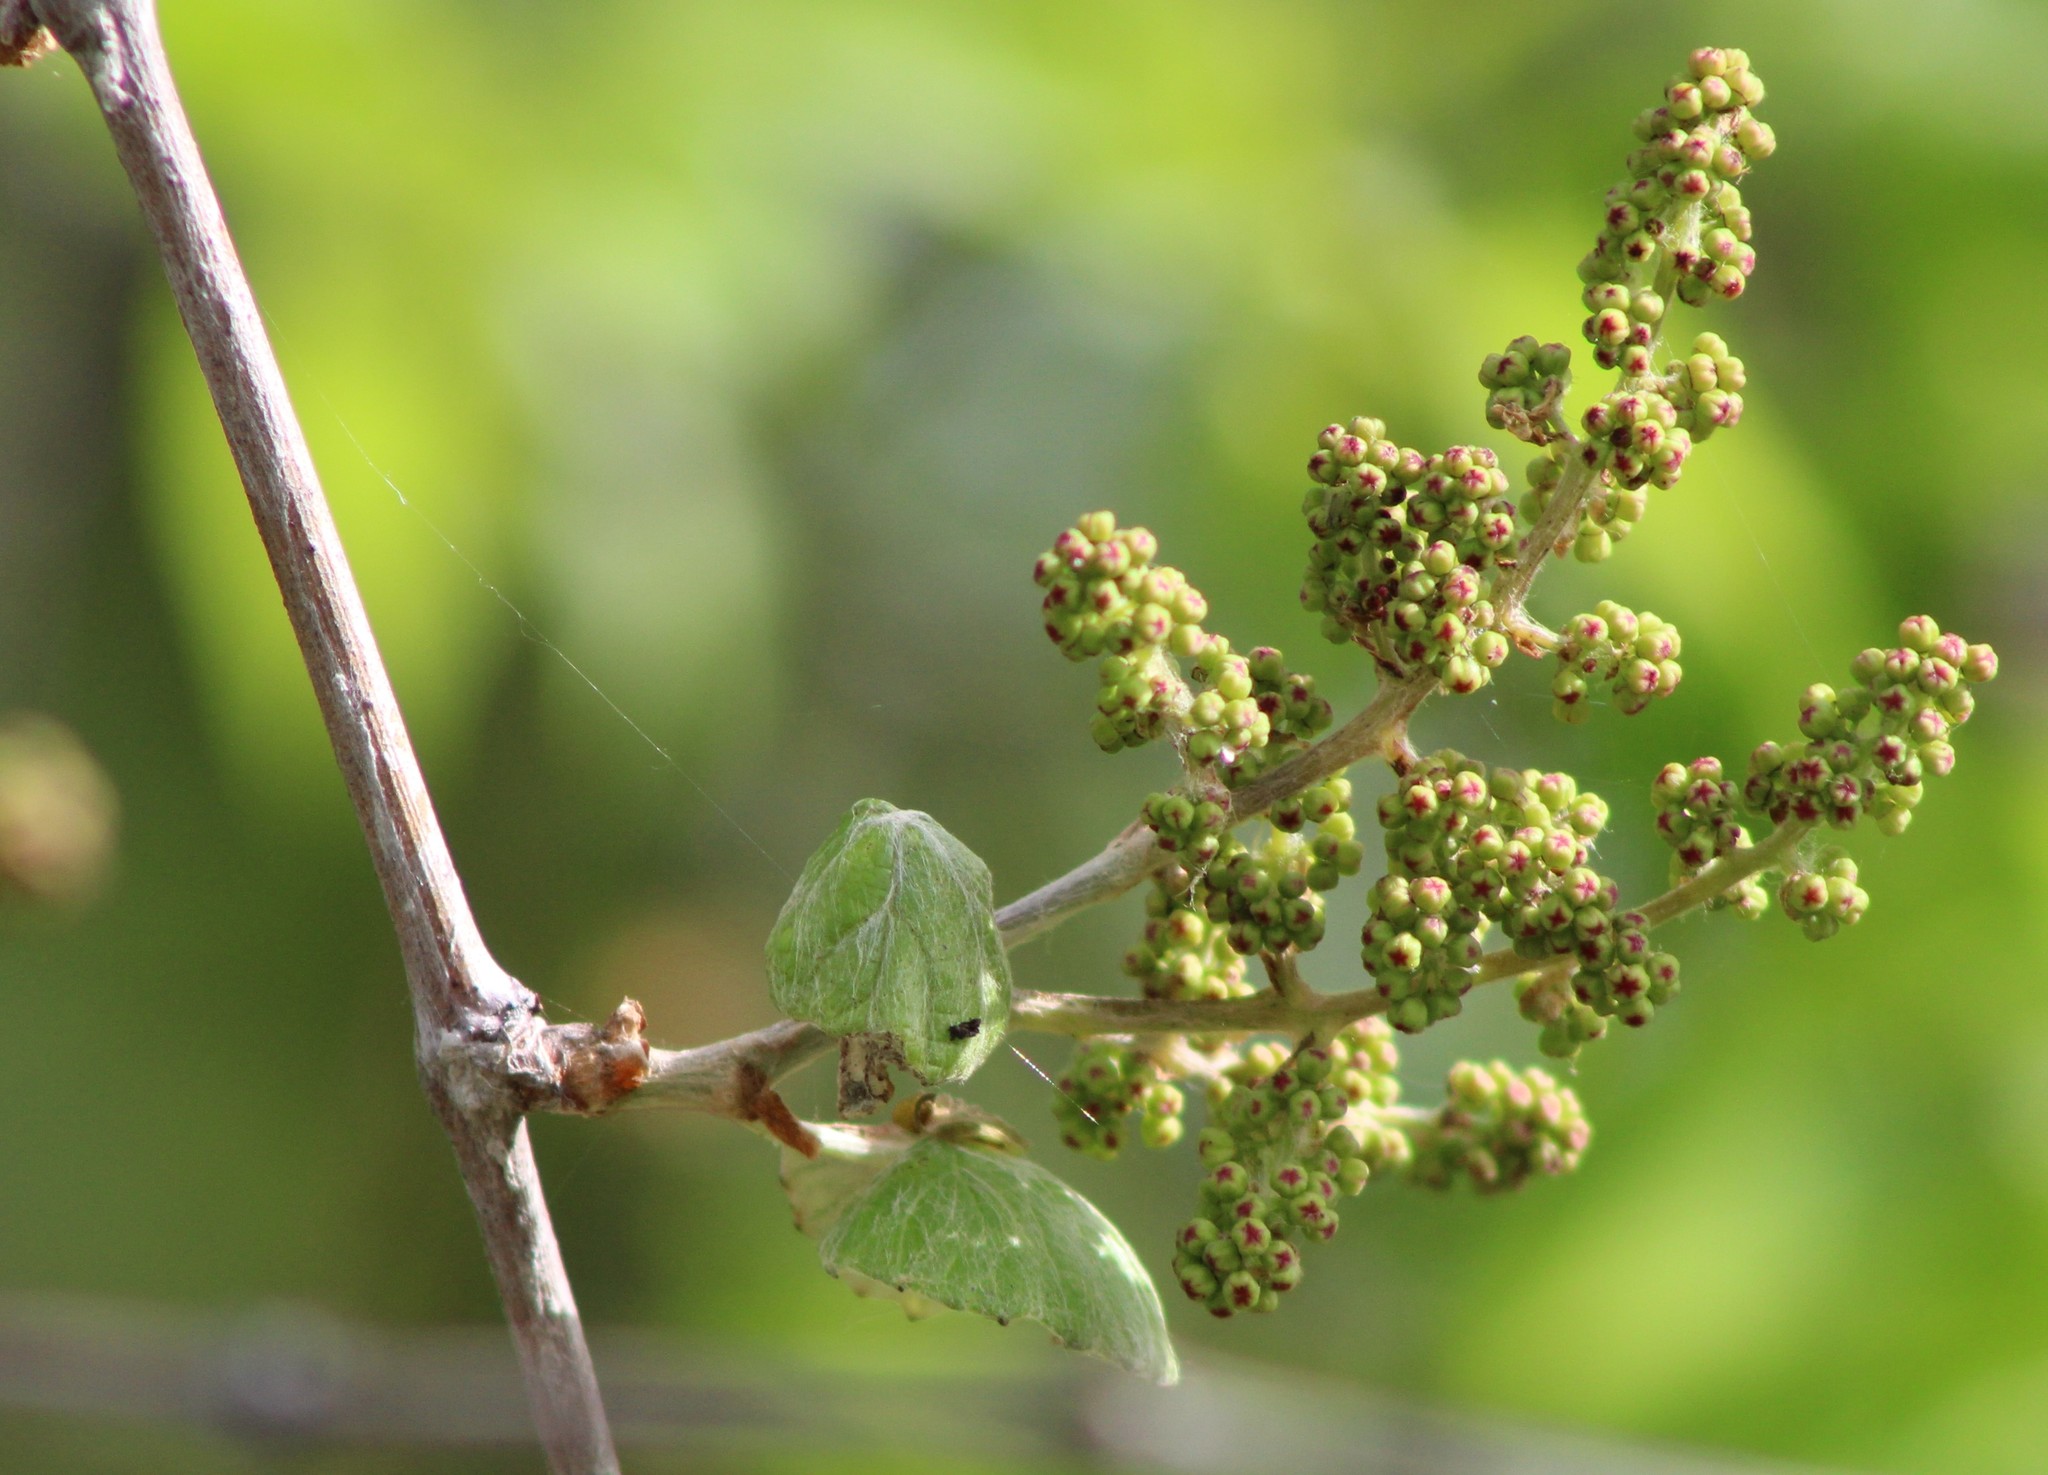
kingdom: Plantae
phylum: Tracheophyta
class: Magnoliopsida
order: Vitales
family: Vitaceae
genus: Vitis
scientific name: Vitis mustangensis
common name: Mustang grape
